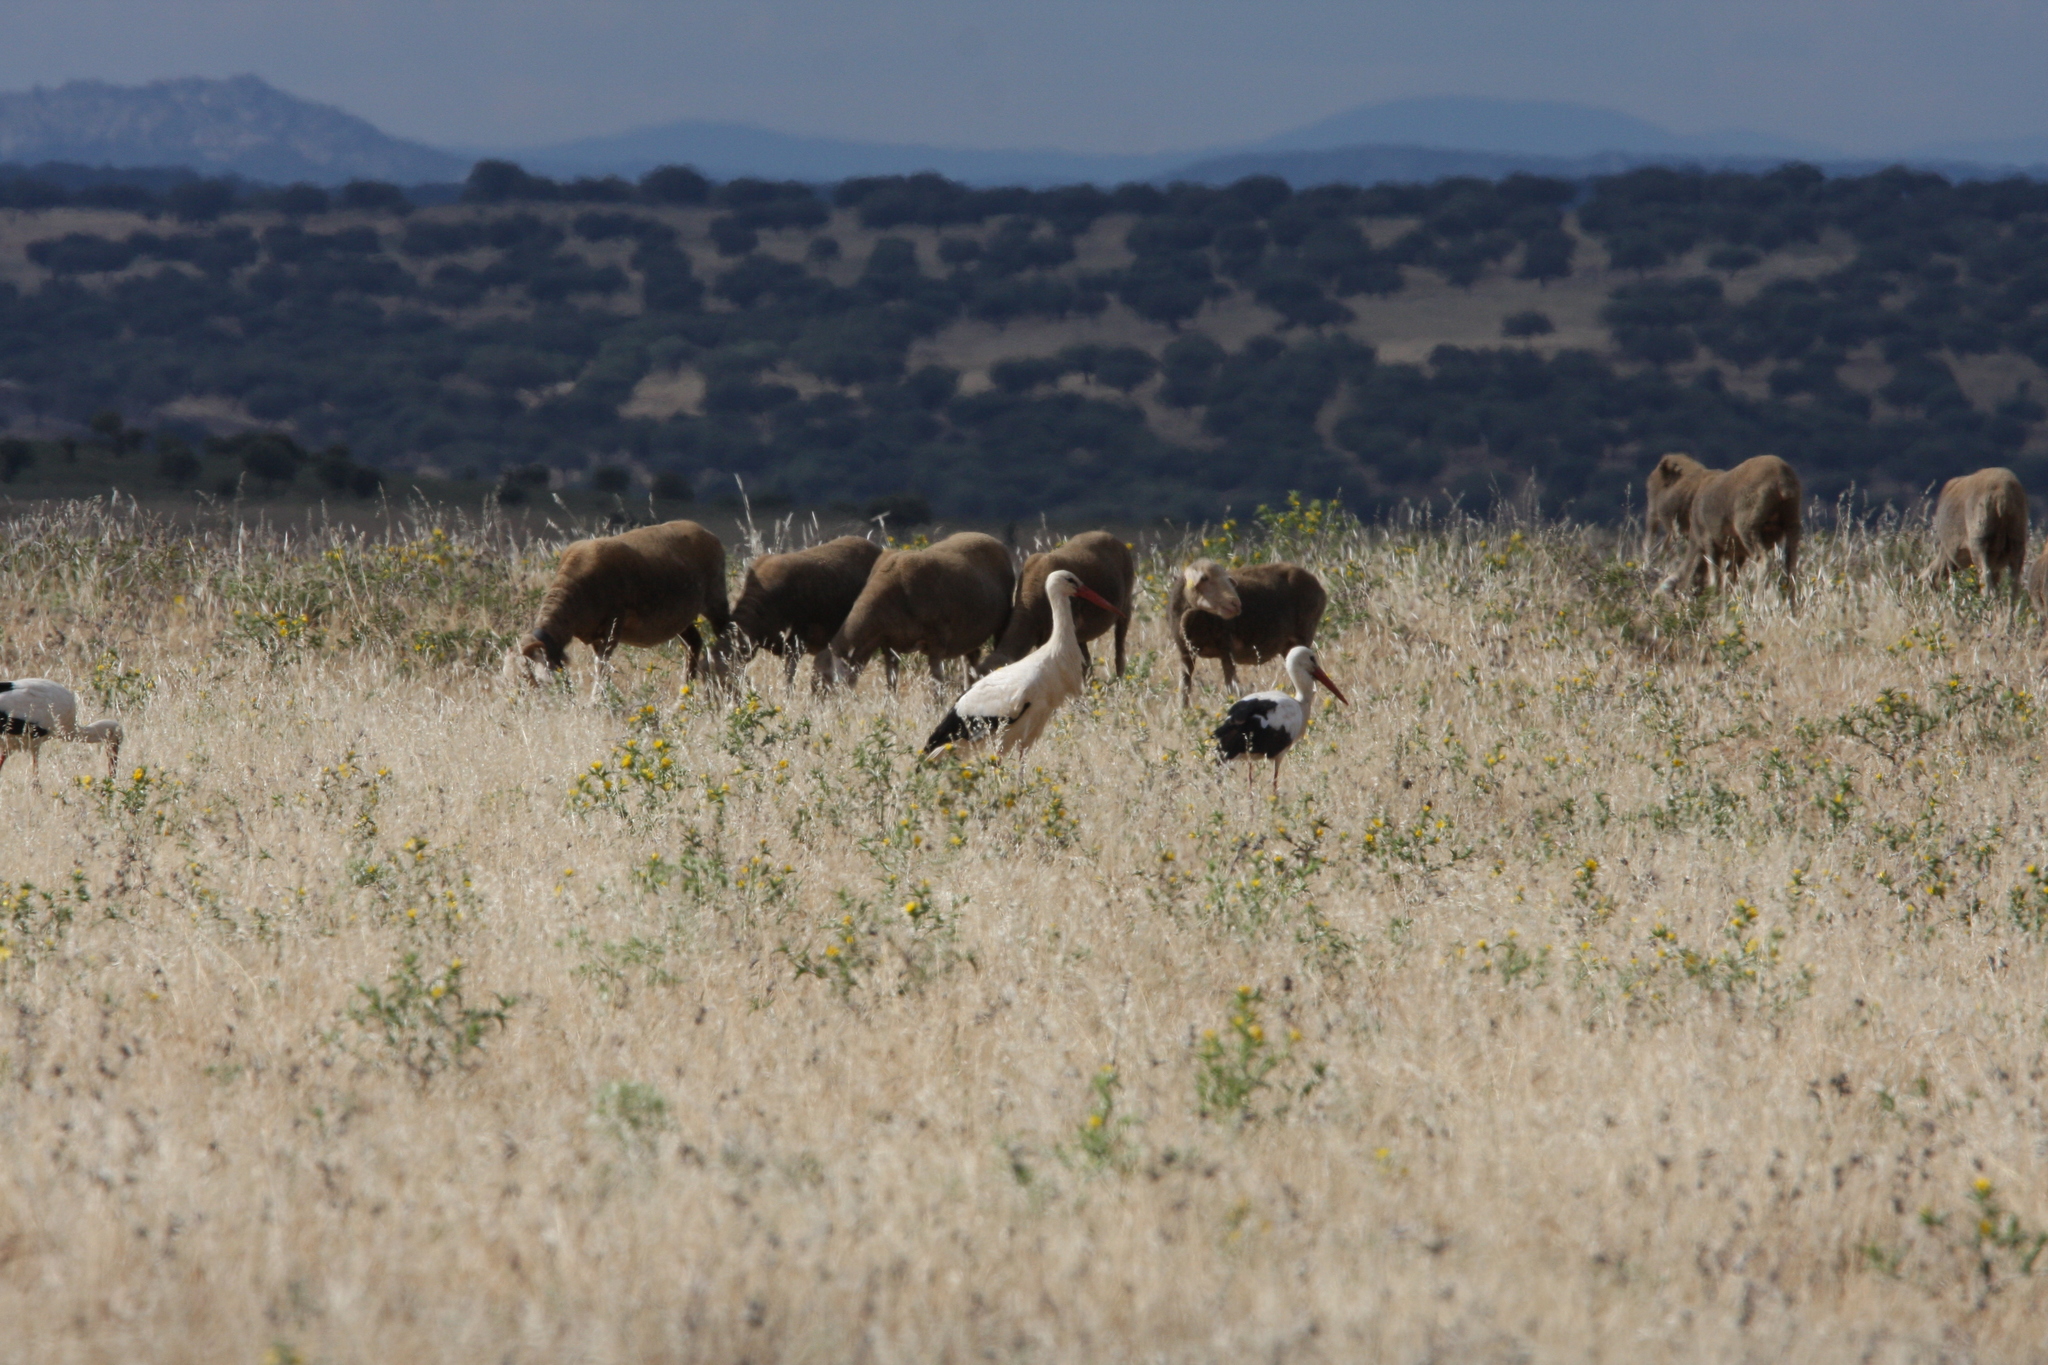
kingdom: Animalia
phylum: Chordata
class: Aves
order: Ciconiiformes
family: Ciconiidae
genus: Ciconia
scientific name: Ciconia ciconia
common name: White stork
